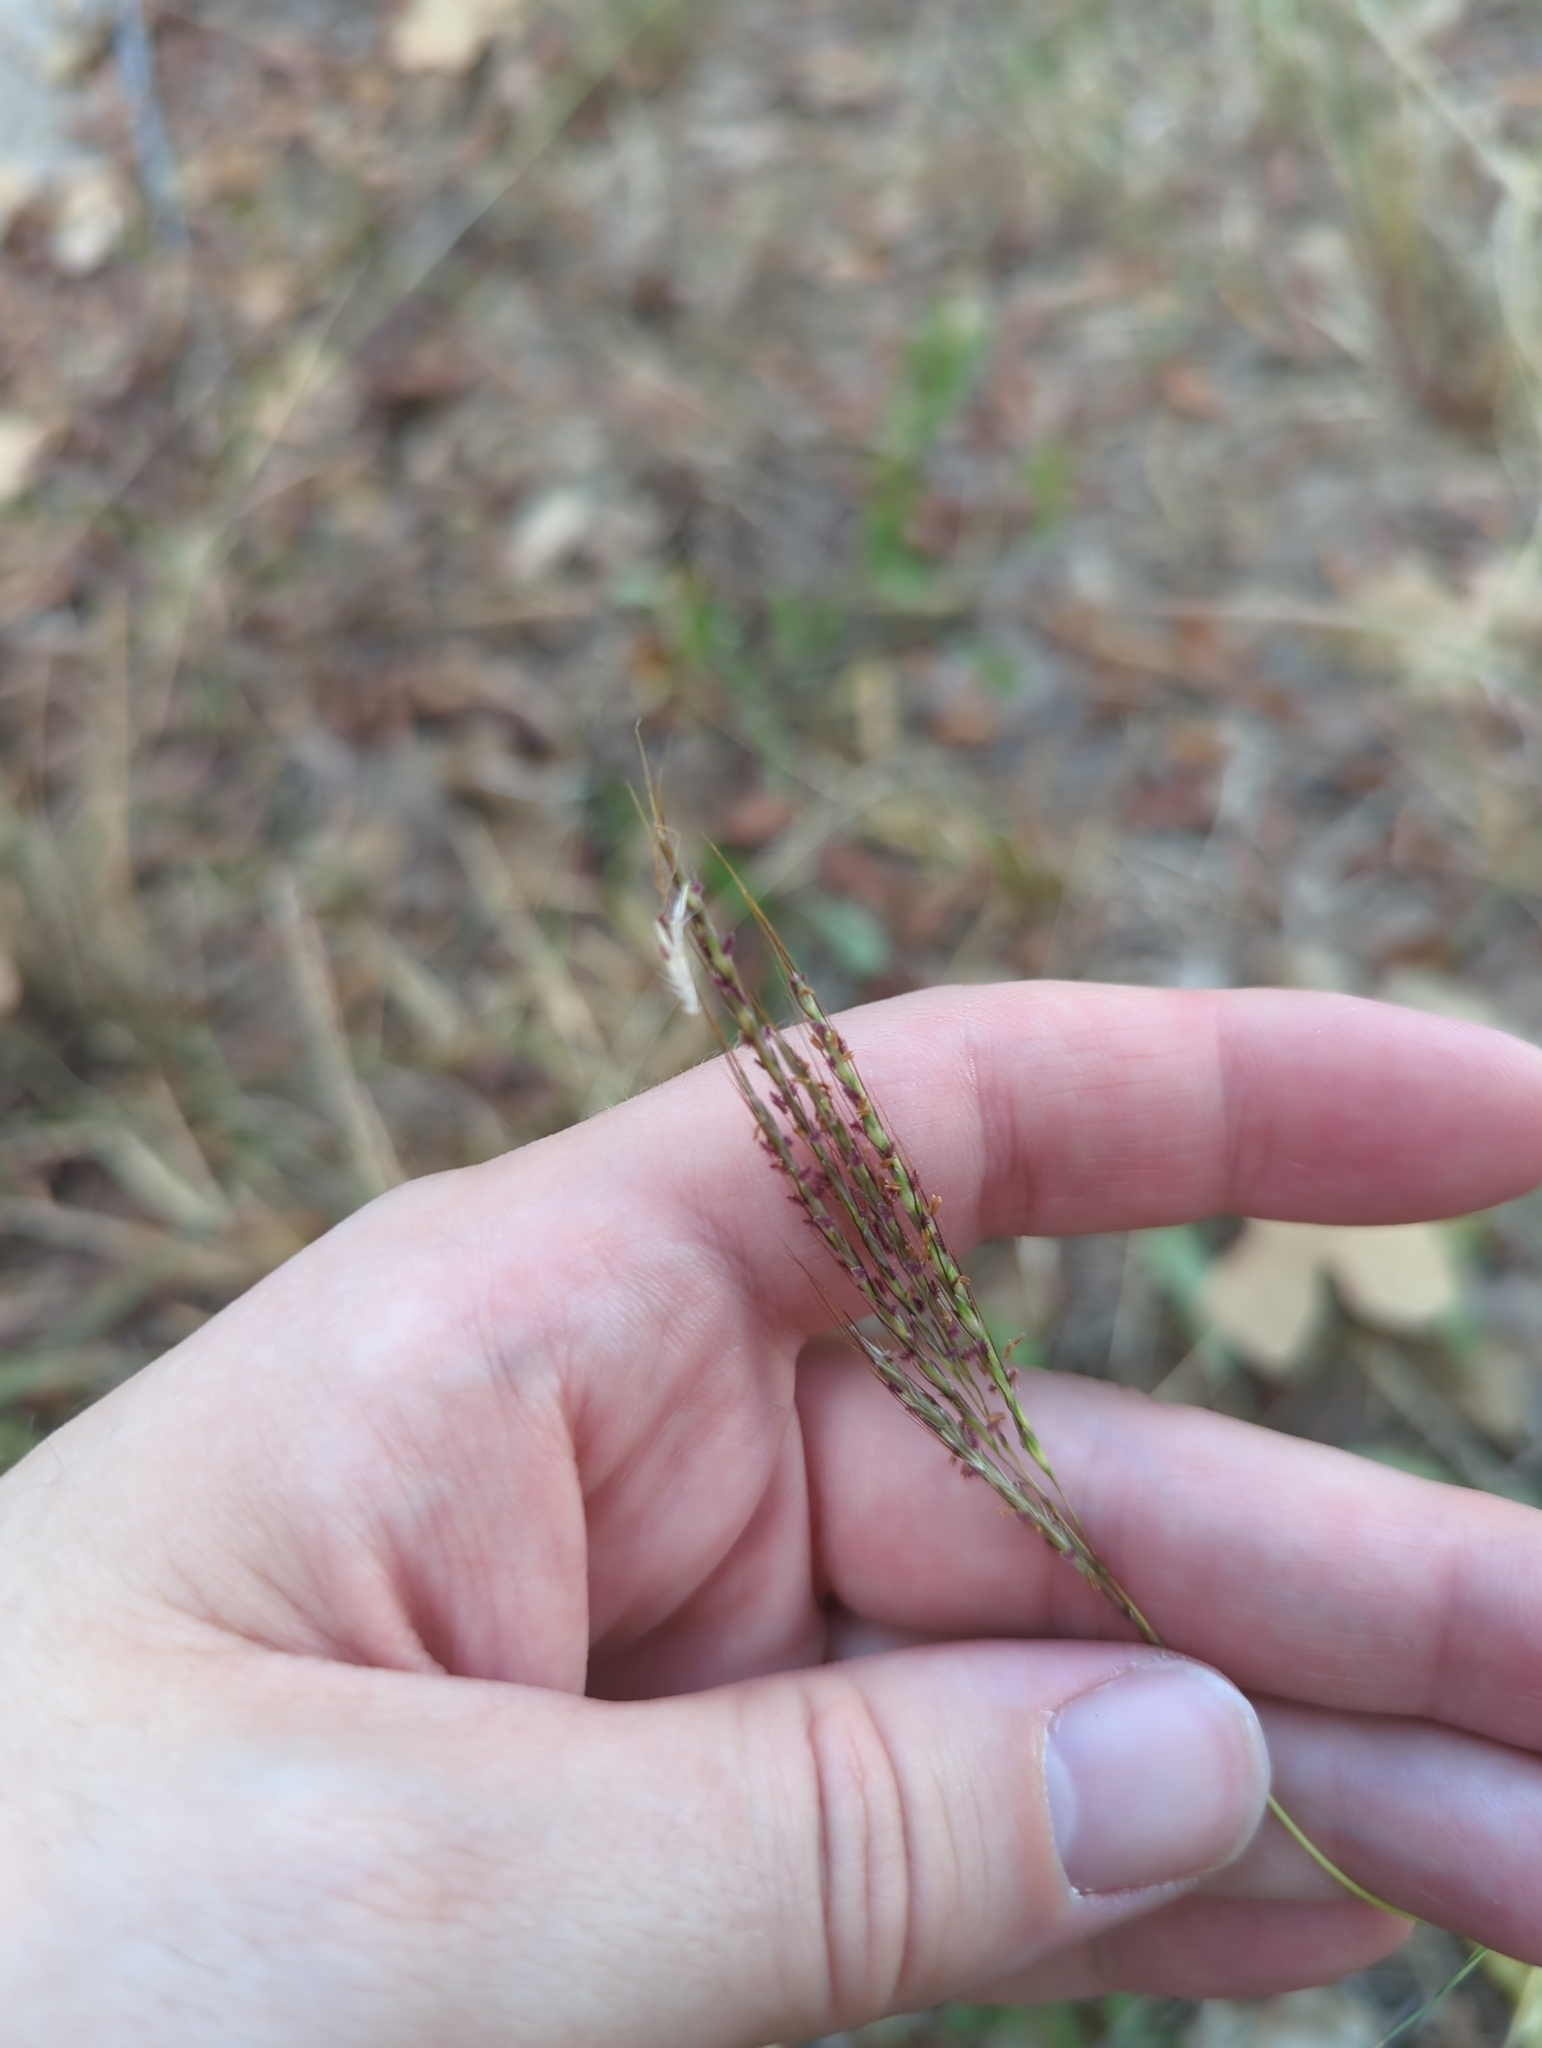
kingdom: Plantae
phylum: Tracheophyta
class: Liliopsida
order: Poales
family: Poaceae
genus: Bothriochloa
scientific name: Bothriochloa ischaemum
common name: Yellow bluestem
